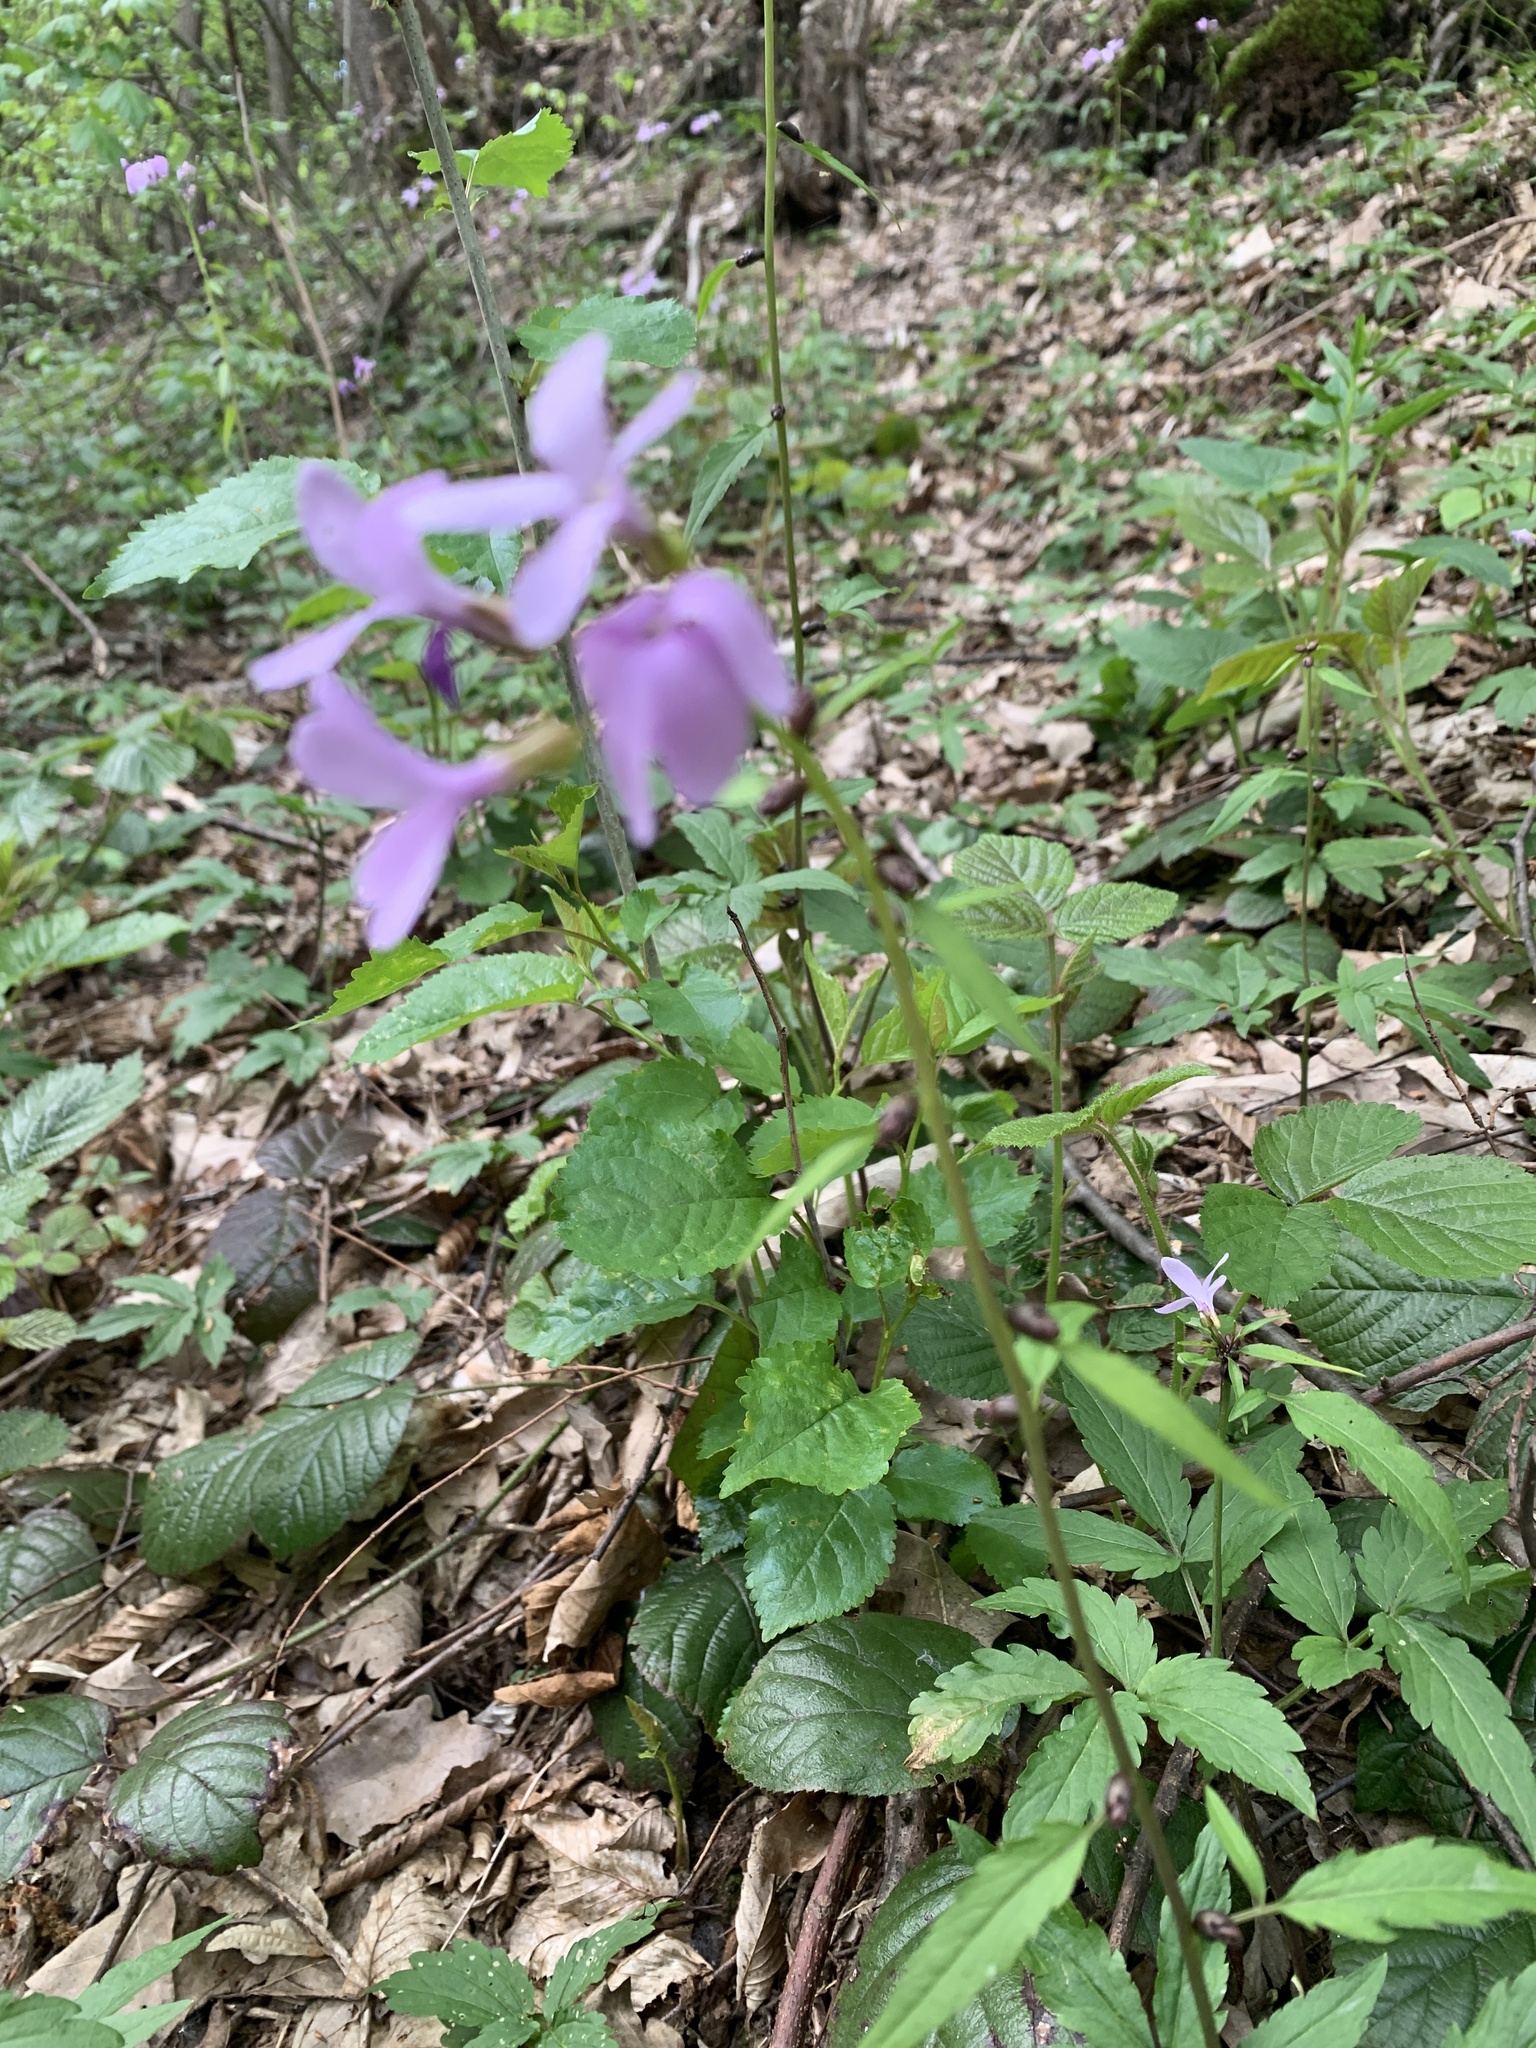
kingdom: Plantae
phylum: Tracheophyta
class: Magnoliopsida
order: Brassicales
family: Brassicaceae
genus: Cardamine
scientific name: Cardamine bulbifera
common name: Coralroot bittercress
